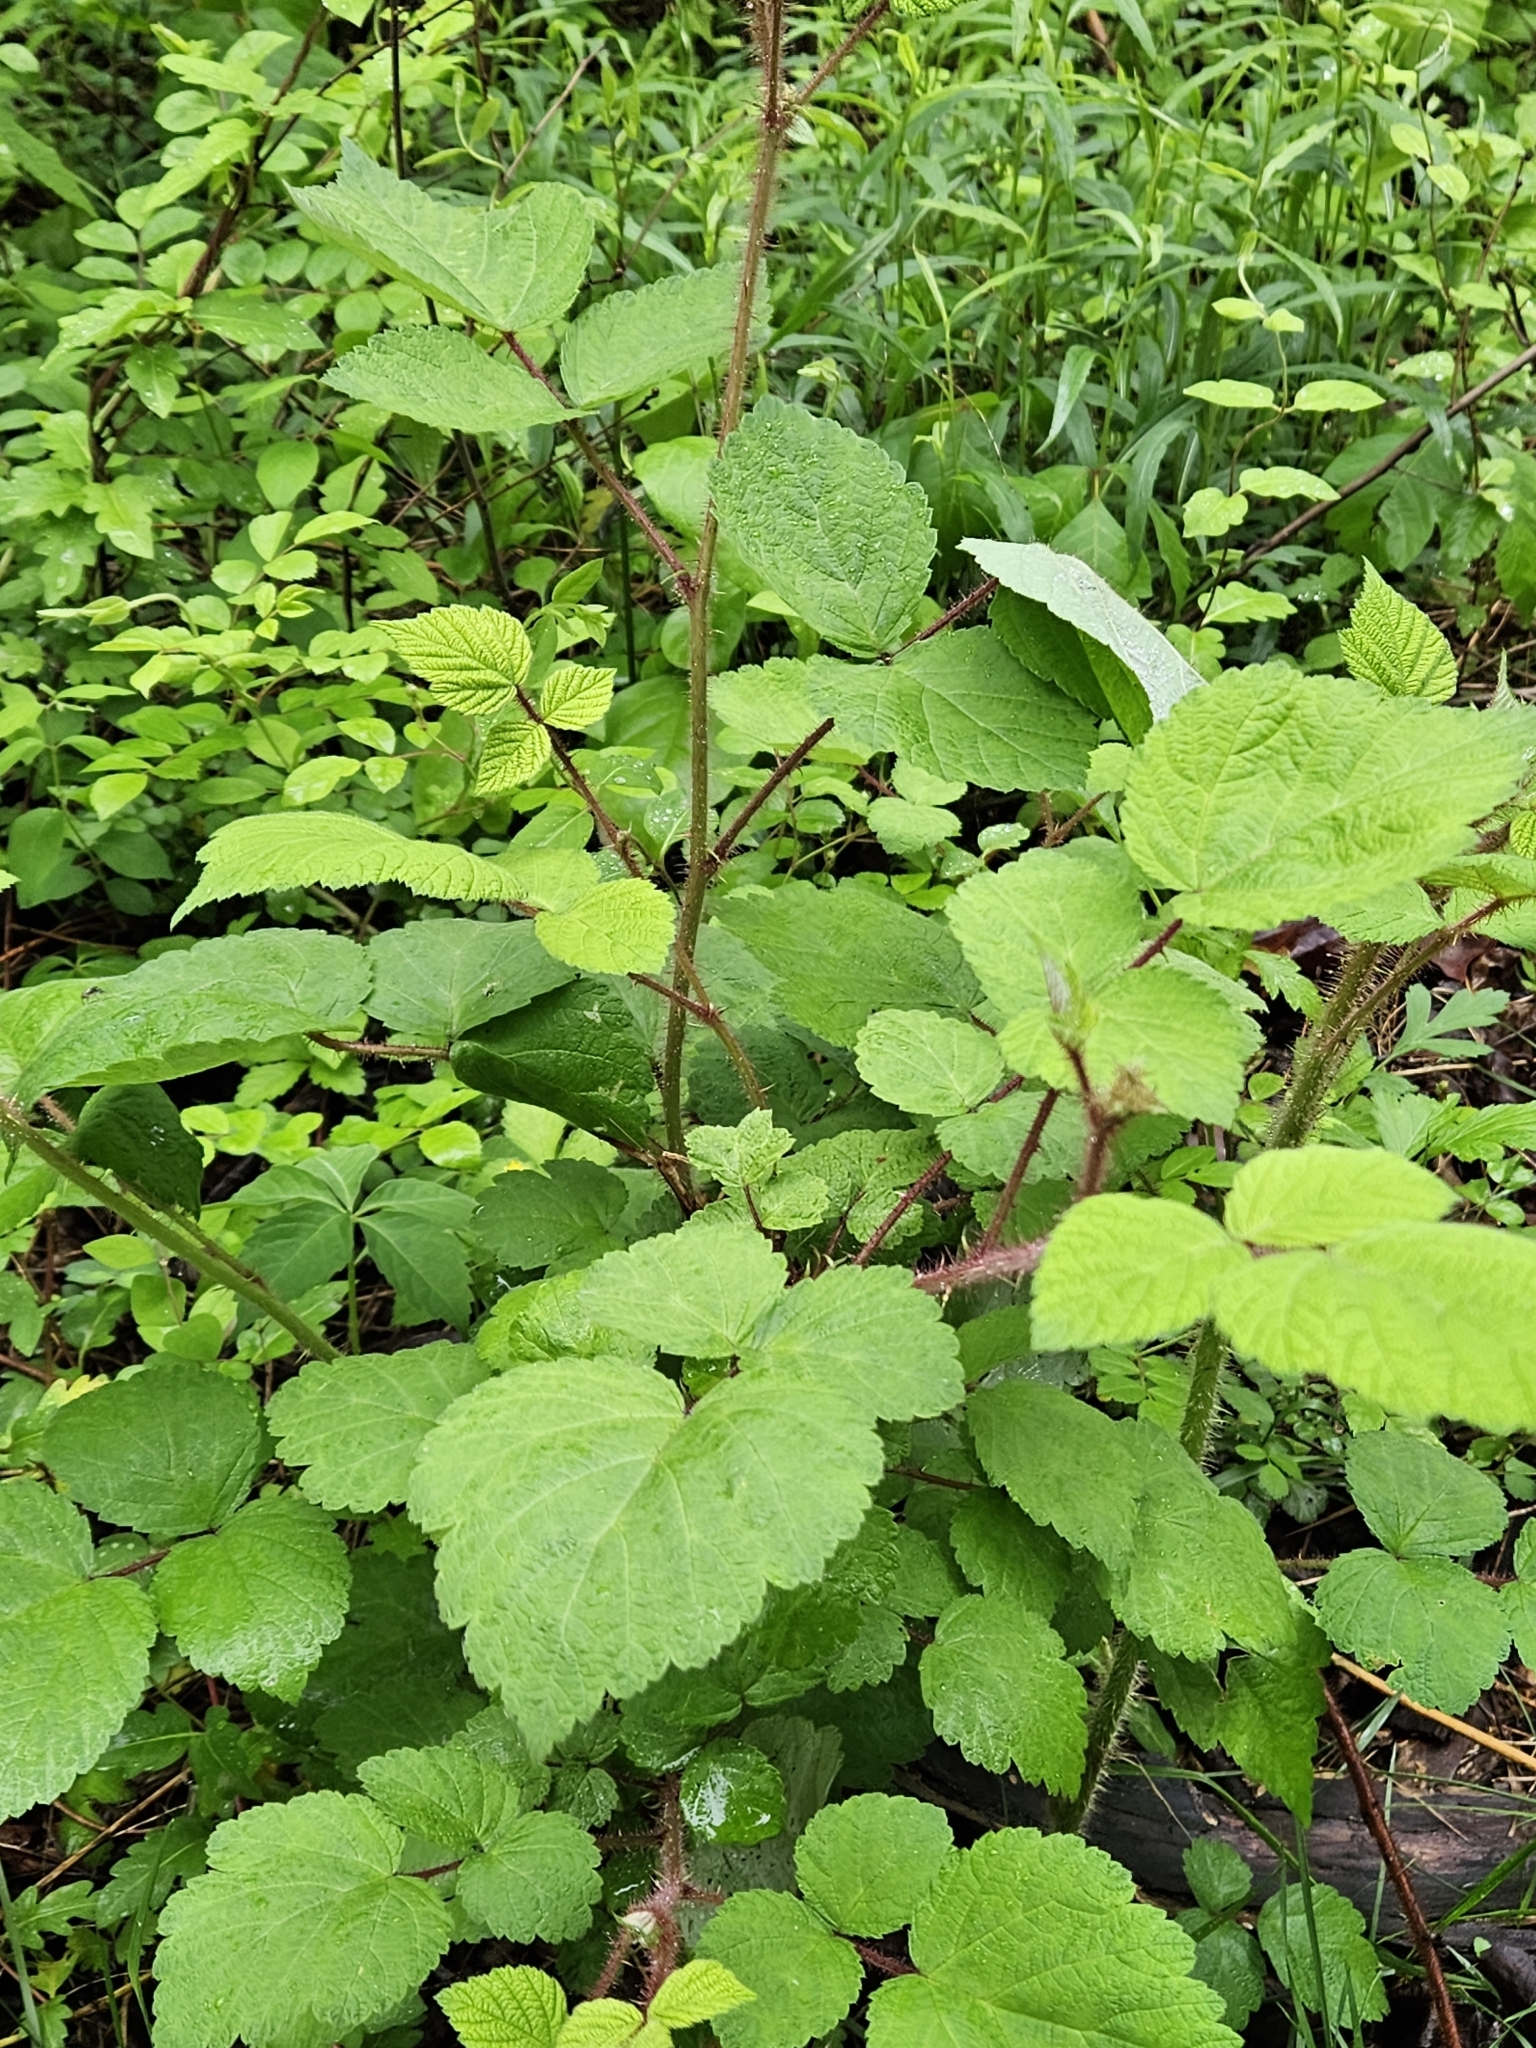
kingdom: Plantae
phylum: Tracheophyta
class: Magnoliopsida
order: Rosales
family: Rosaceae
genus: Rubus
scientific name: Rubus phoenicolasius
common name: Japanese wineberry
